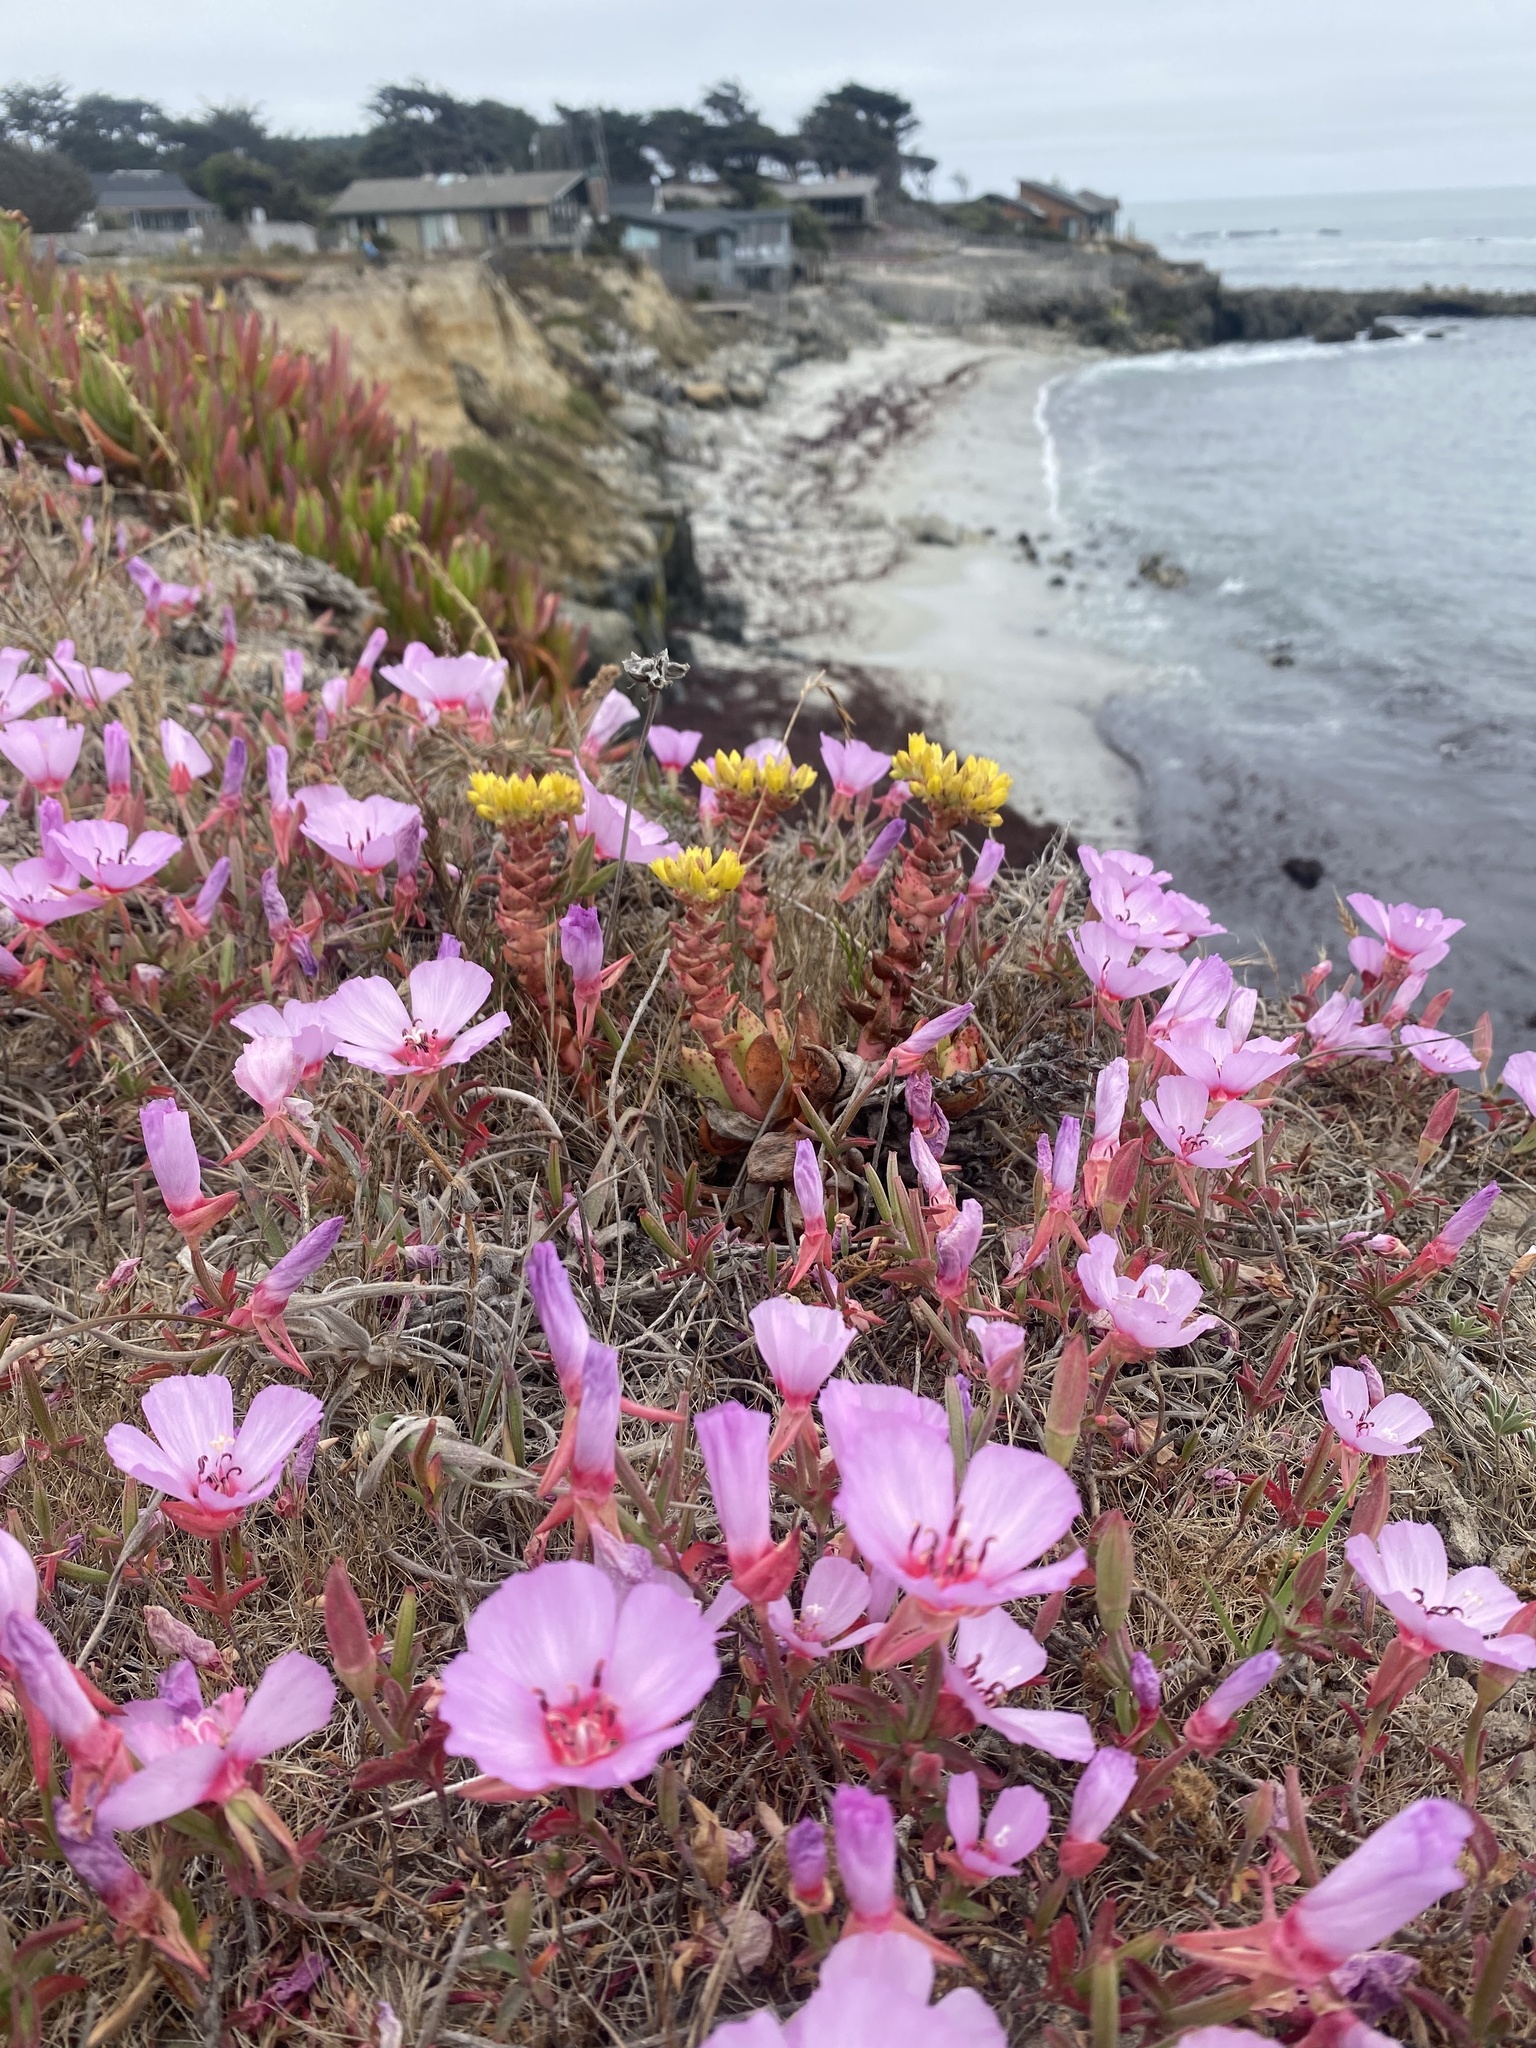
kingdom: Plantae
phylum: Tracheophyta
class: Magnoliopsida
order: Myrtales
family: Onagraceae
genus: Clarkia
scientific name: Clarkia rubicunda
